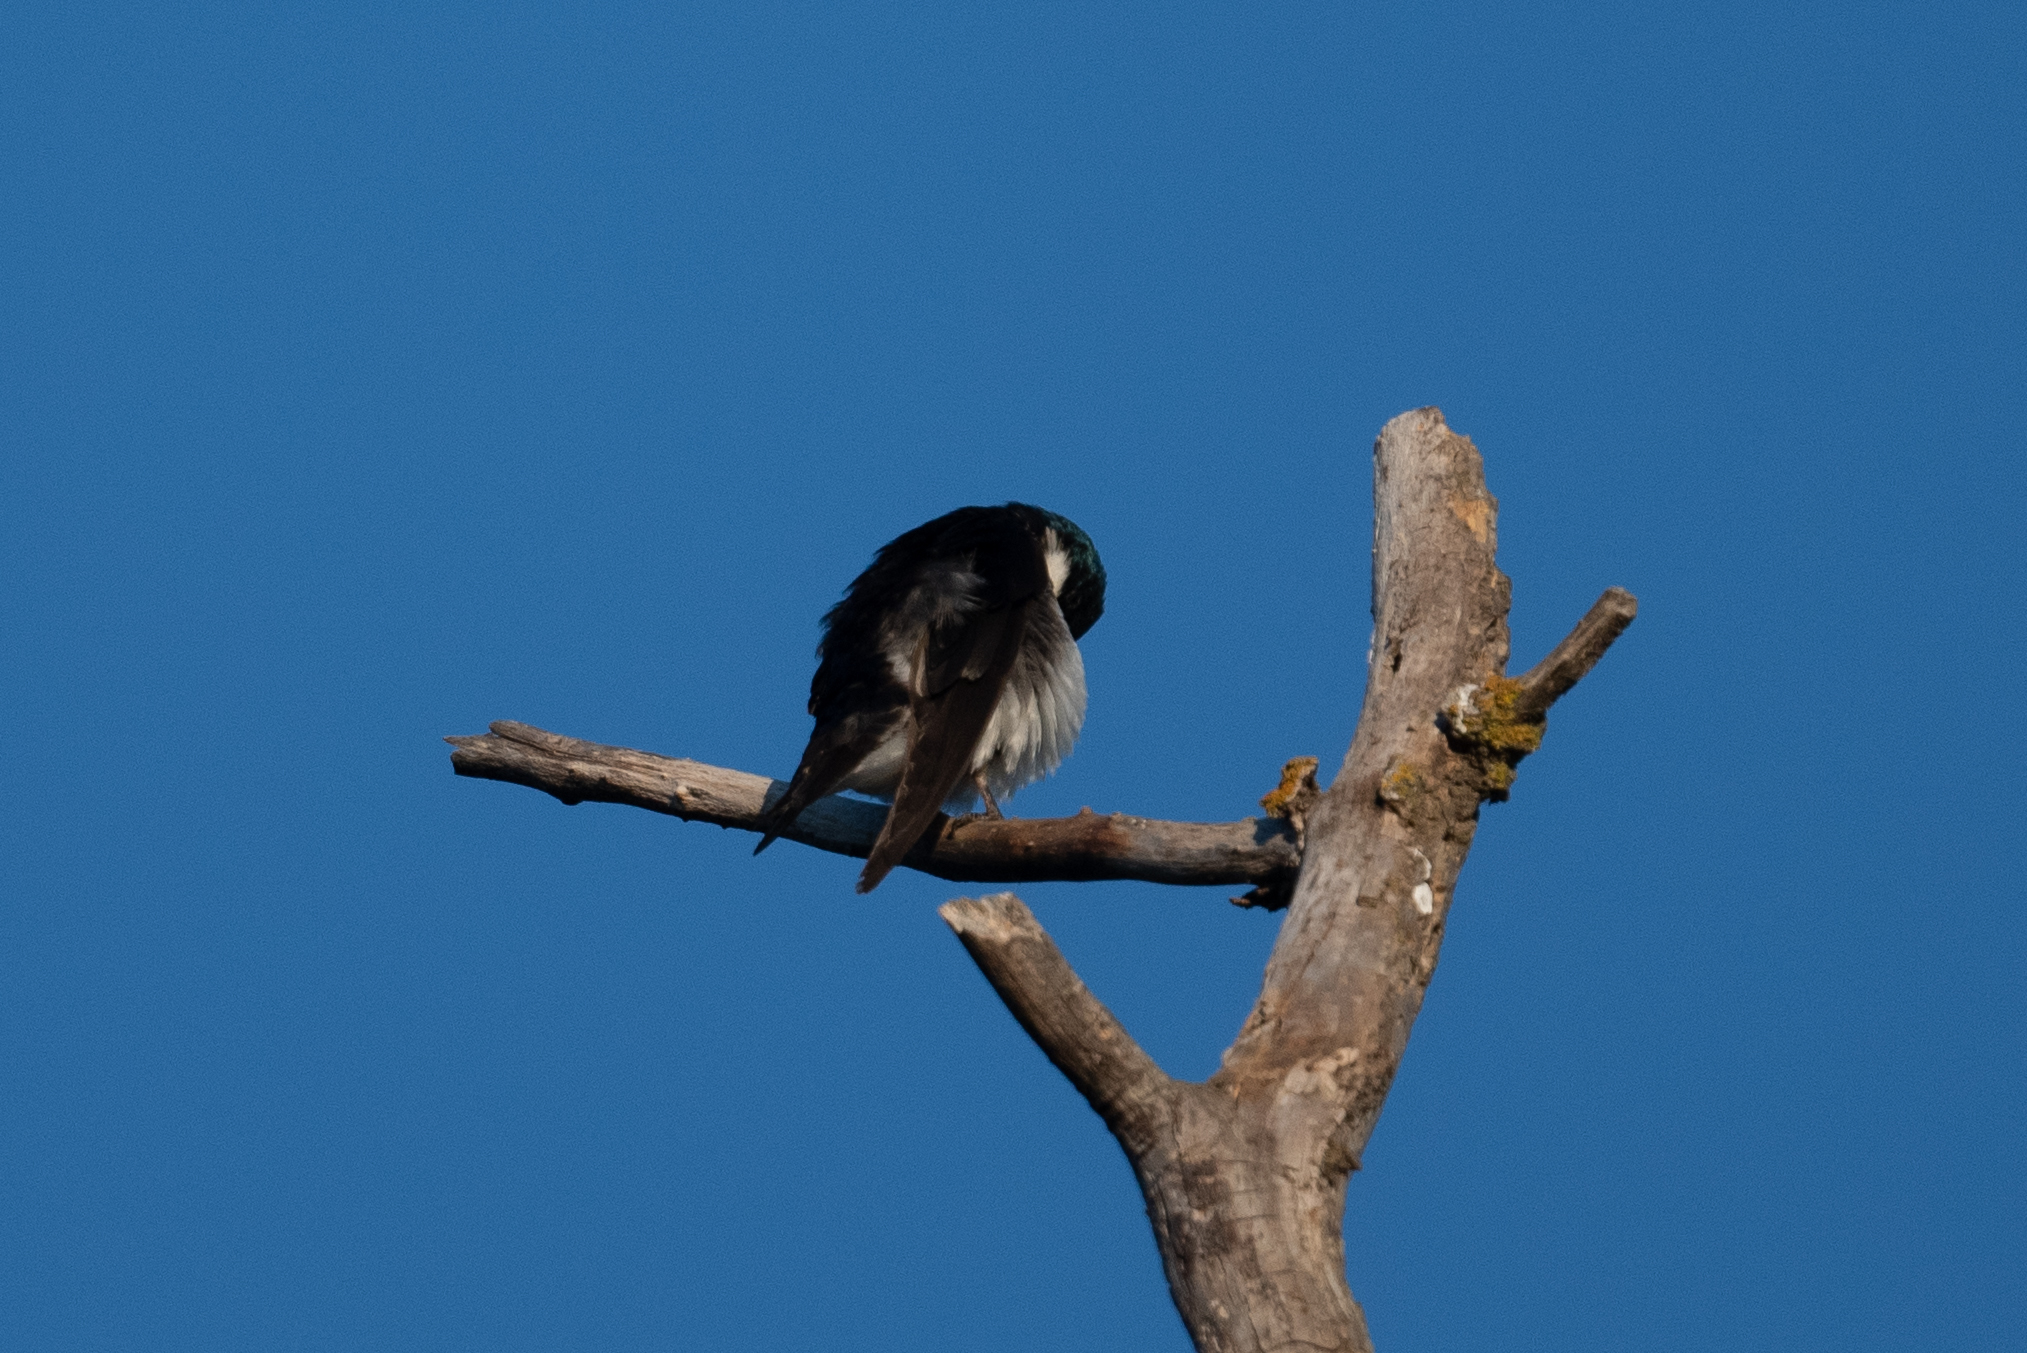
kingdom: Animalia
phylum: Chordata
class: Aves
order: Passeriformes
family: Hirundinidae
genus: Tachycineta
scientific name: Tachycineta bicolor
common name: Tree swallow
